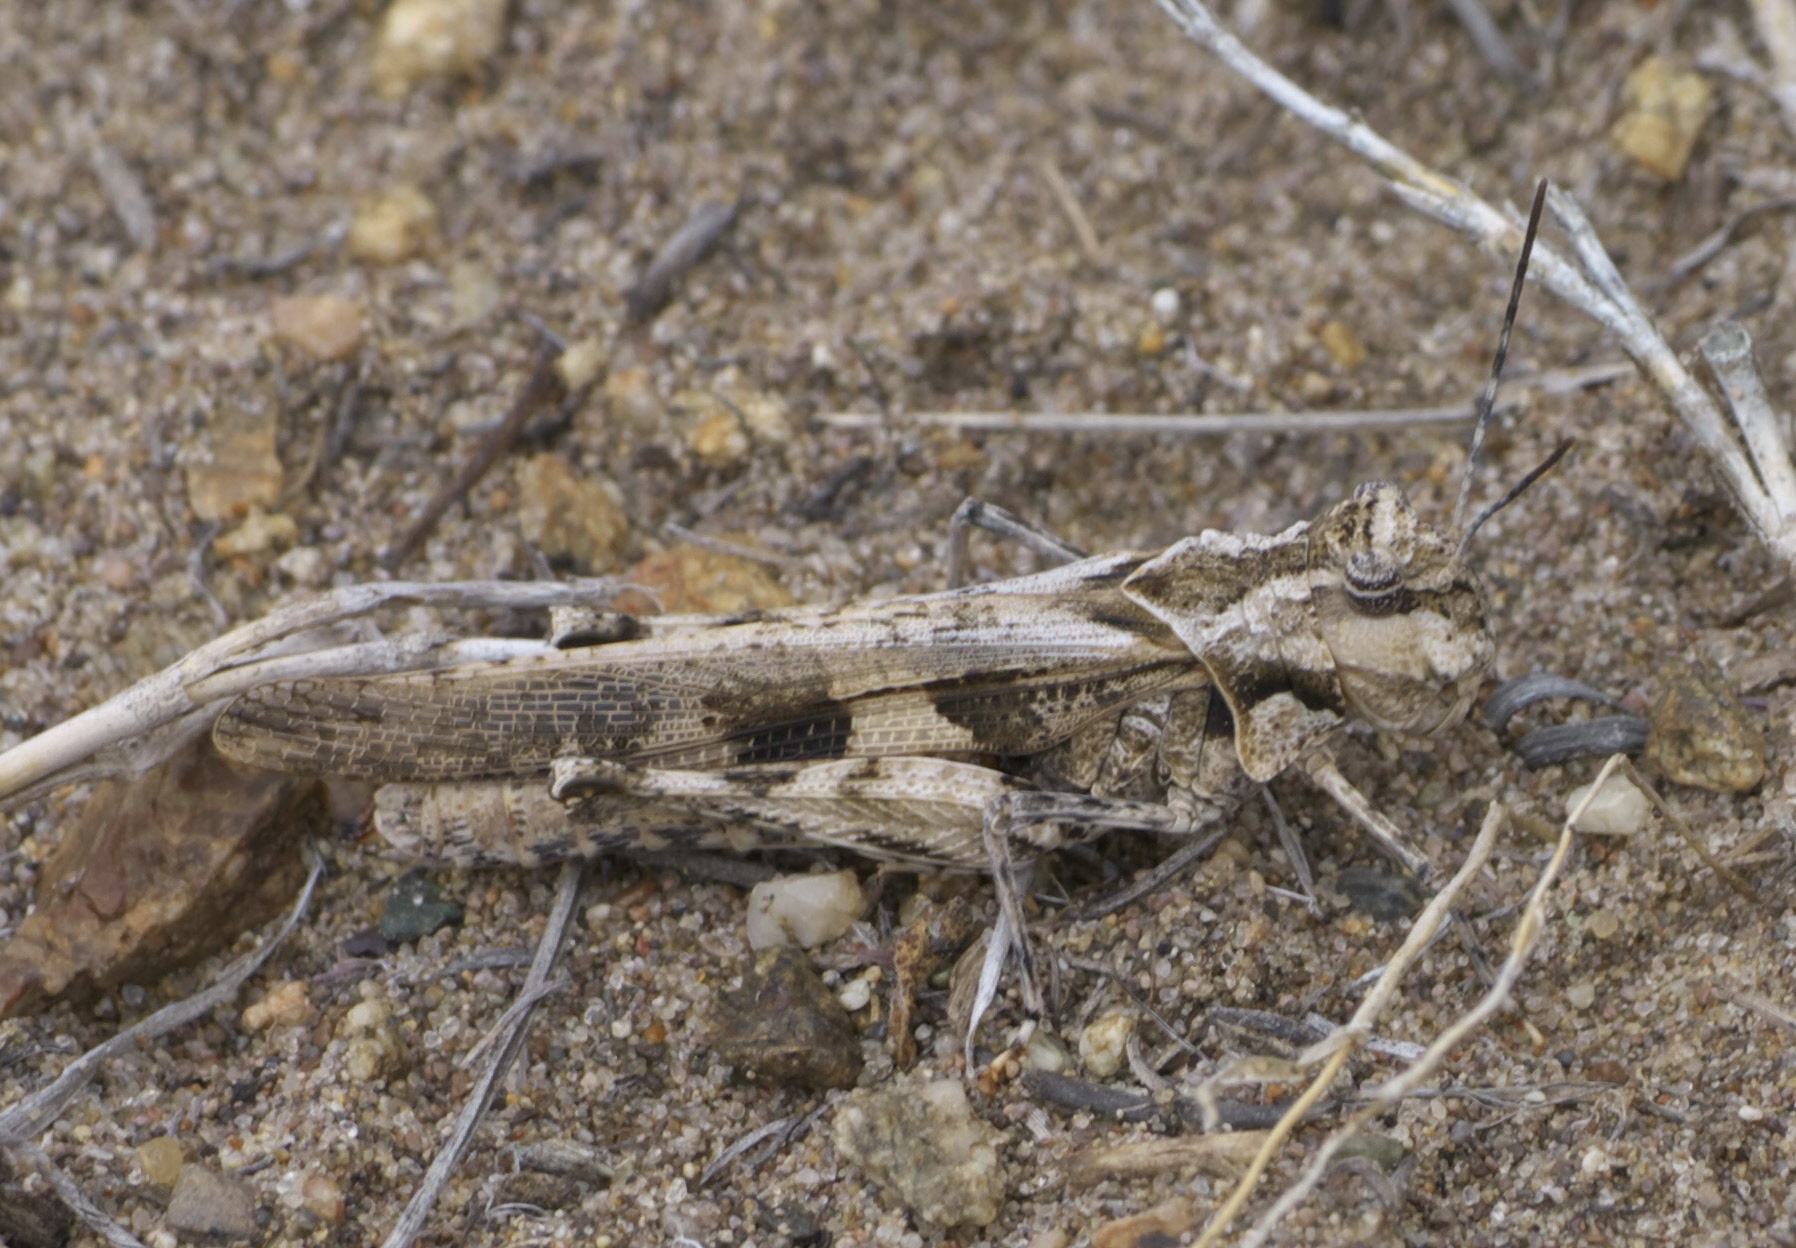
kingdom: Animalia
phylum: Arthropoda
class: Insecta
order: Orthoptera
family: Acrididae
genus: Mestobregma
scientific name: Mestobregma plattei
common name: Platte range grasshopper
